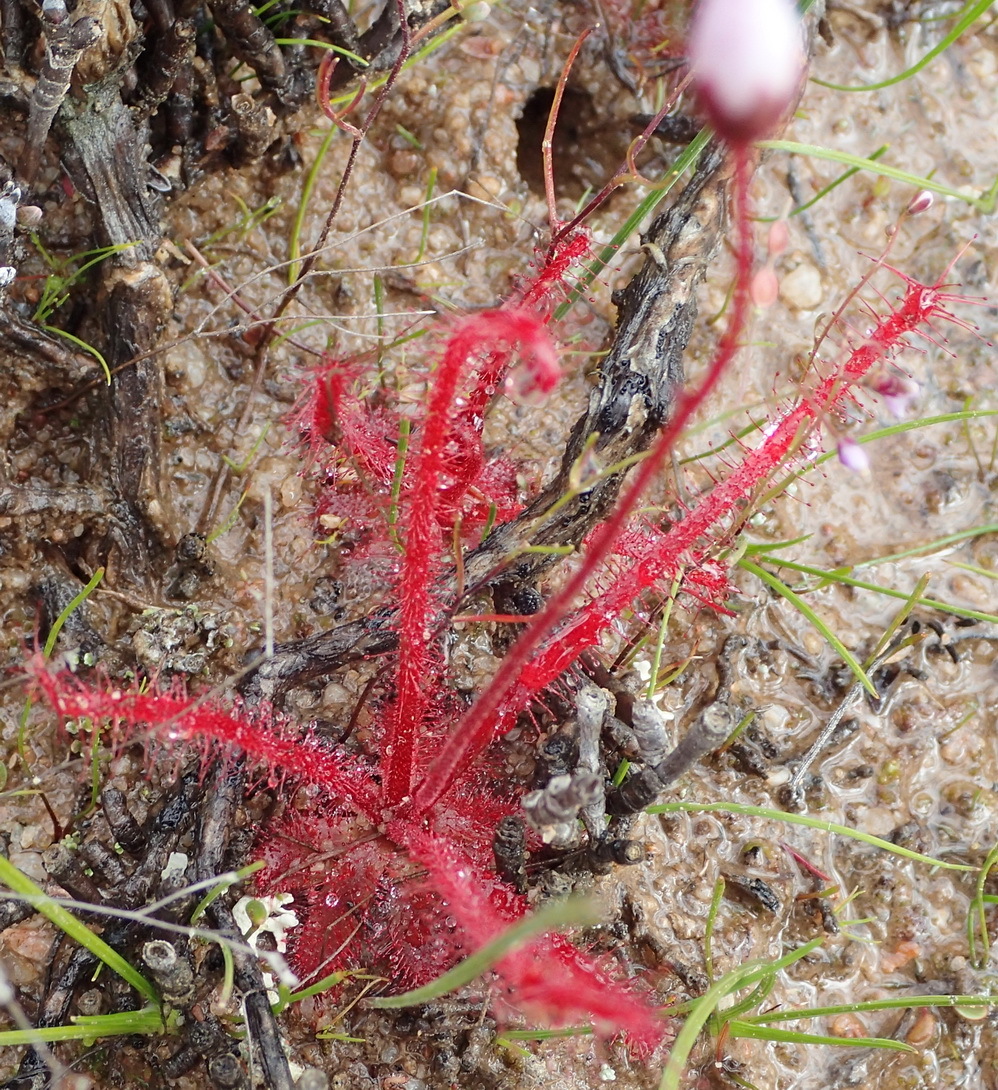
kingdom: Plantae
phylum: Tracheophyta
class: Magnoliopsida
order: Caryophyllales
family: Droseraceae
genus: Drosera
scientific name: Drosera alba
